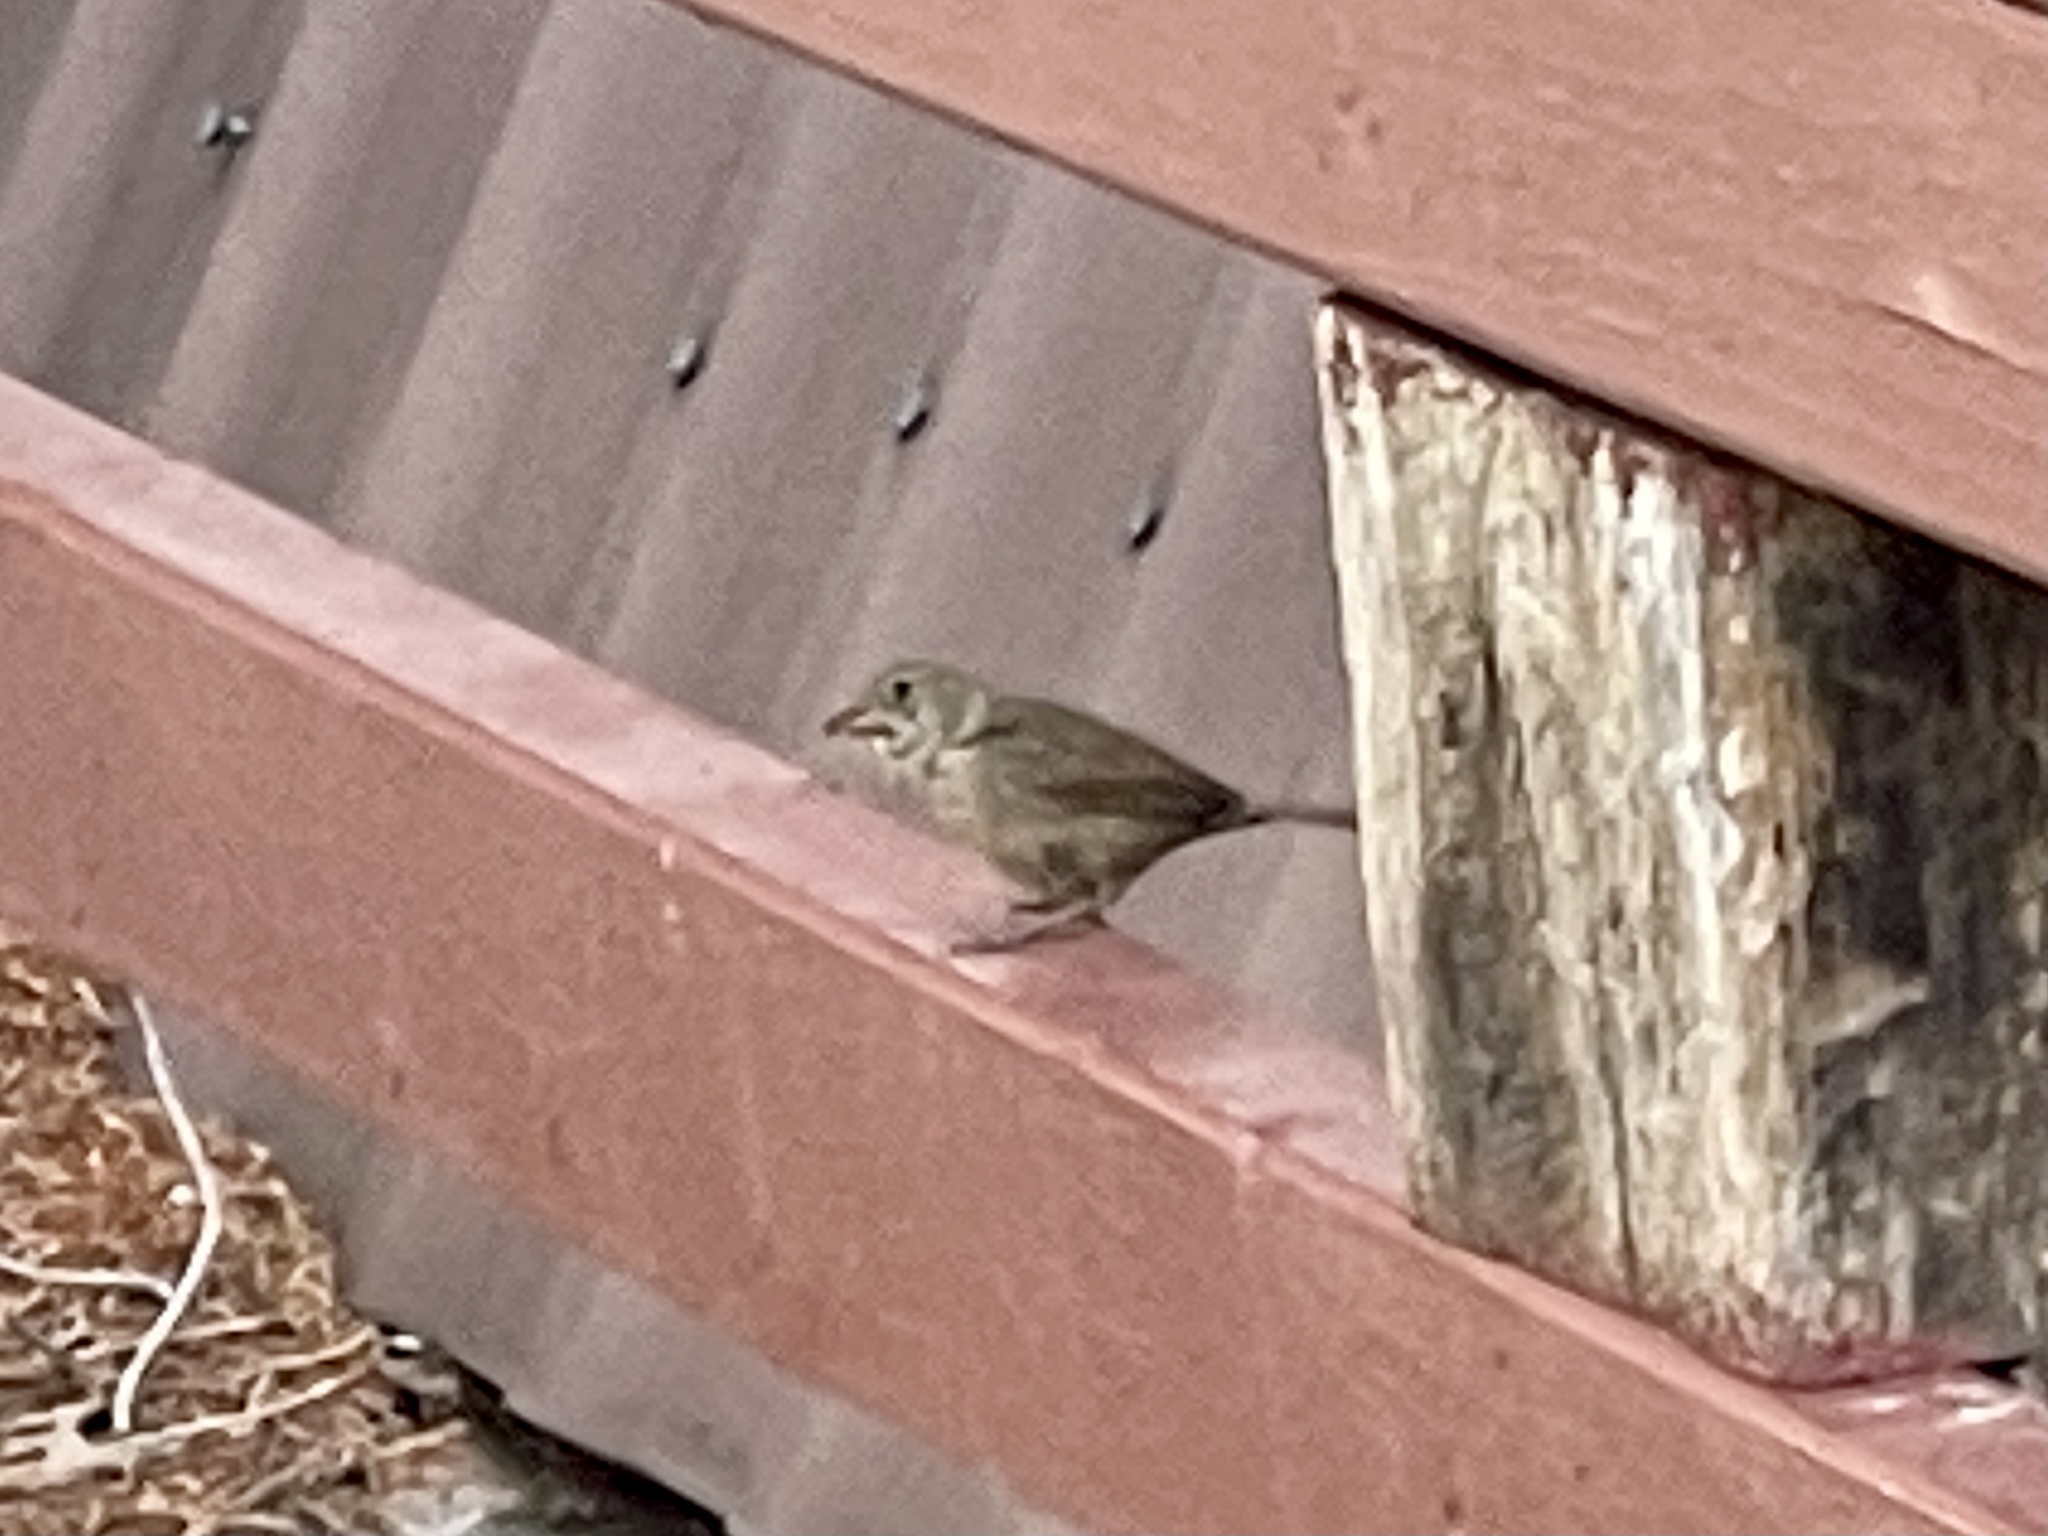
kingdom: Animalia
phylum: Chordata
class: Aves
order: Passeriformes
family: Troglodytidae
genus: Thryomanes
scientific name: Thryomanes bewickii
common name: Bewick's wren
